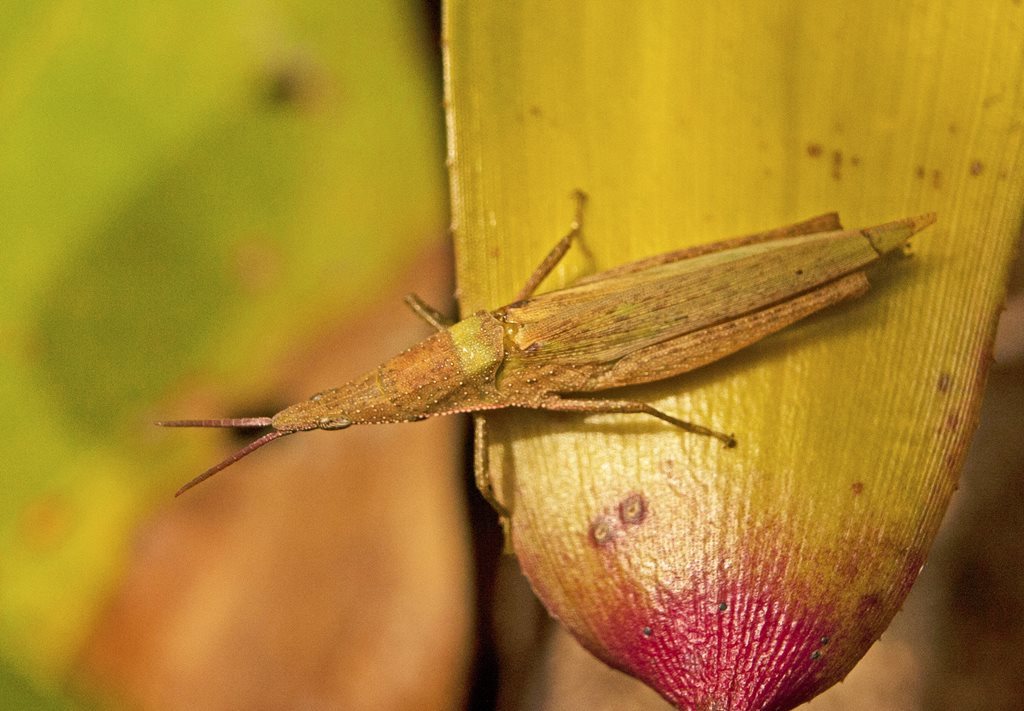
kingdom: Animalia
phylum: Arthropoda
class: Insecta
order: Orthoptera
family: Pyrgomorphidae
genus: Atractomorpha
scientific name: Atractomorpha australis
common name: Australian grass pyrgomorph
